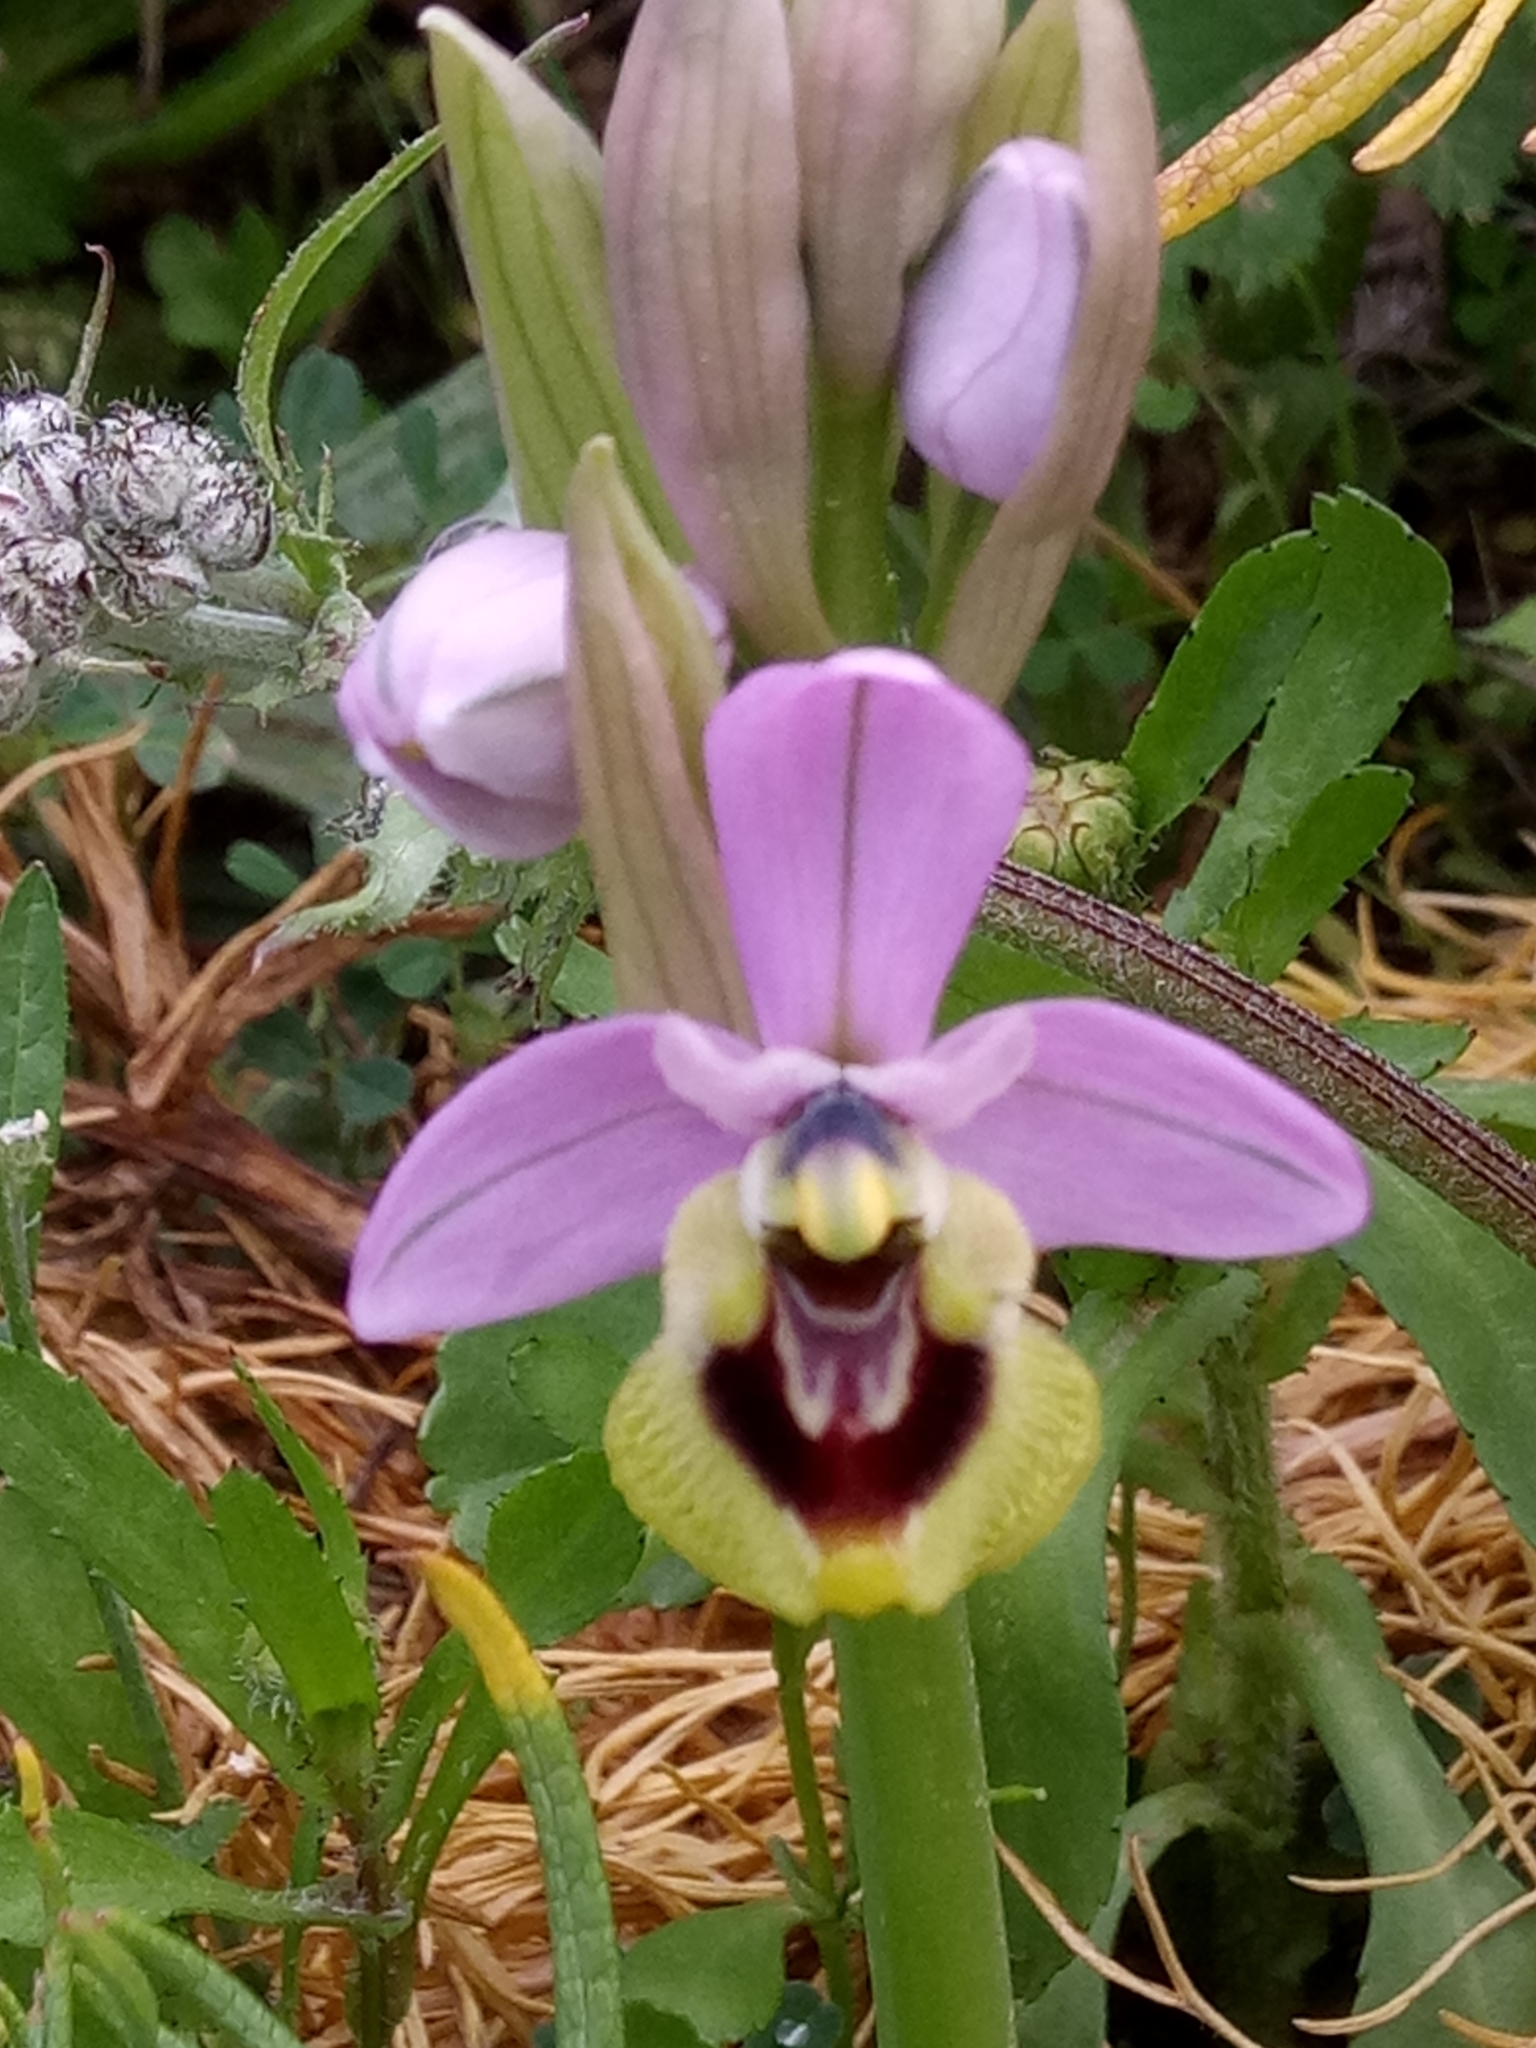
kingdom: Plantae
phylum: Tracheophyta
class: Liliopsida
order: Asparagales
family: Orchidaceae
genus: Ophrys
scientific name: Ophrys tenthredinifera
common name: Sawfly orchid
